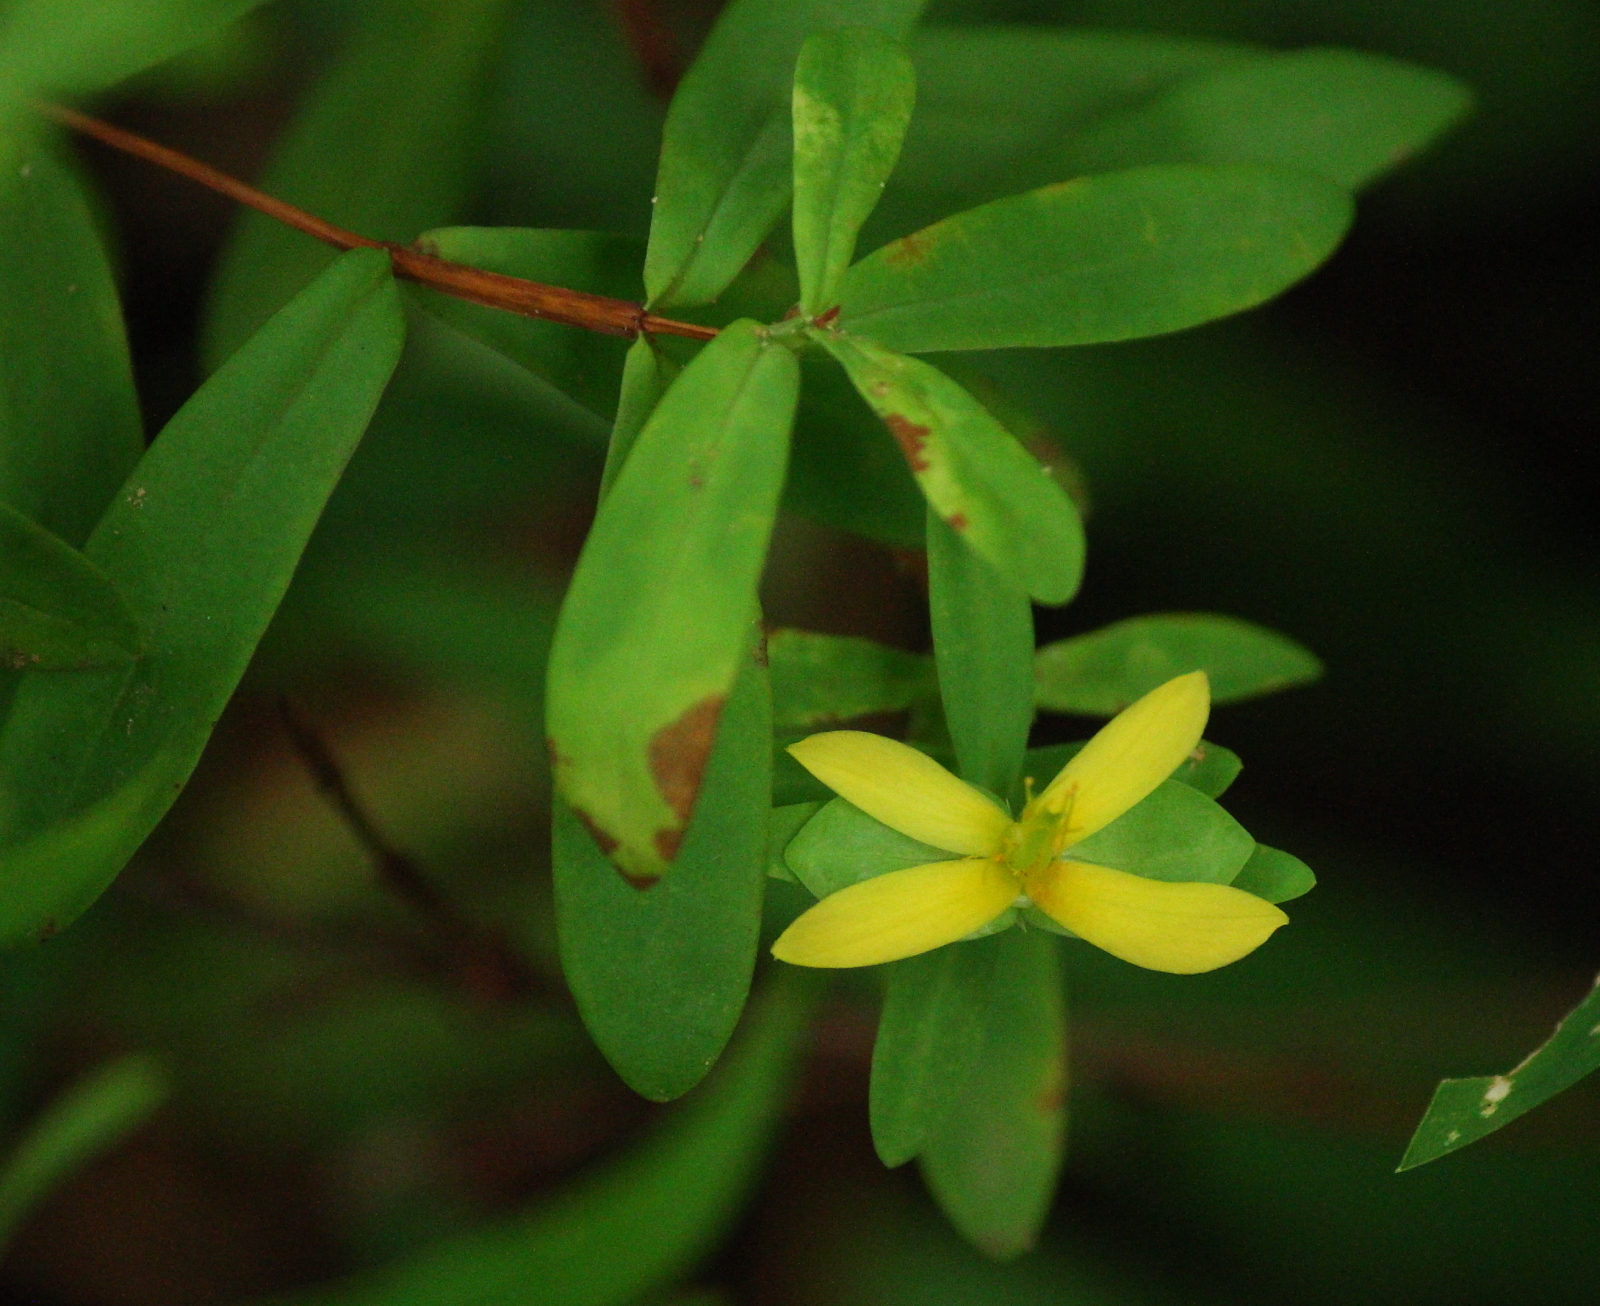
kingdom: Plantae
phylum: Tracheophyta
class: Magnoliopsida
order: Malpighiales
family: Hypericaceae
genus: Hypericum
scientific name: Hypericum hypericoides
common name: St. andrew's cross
